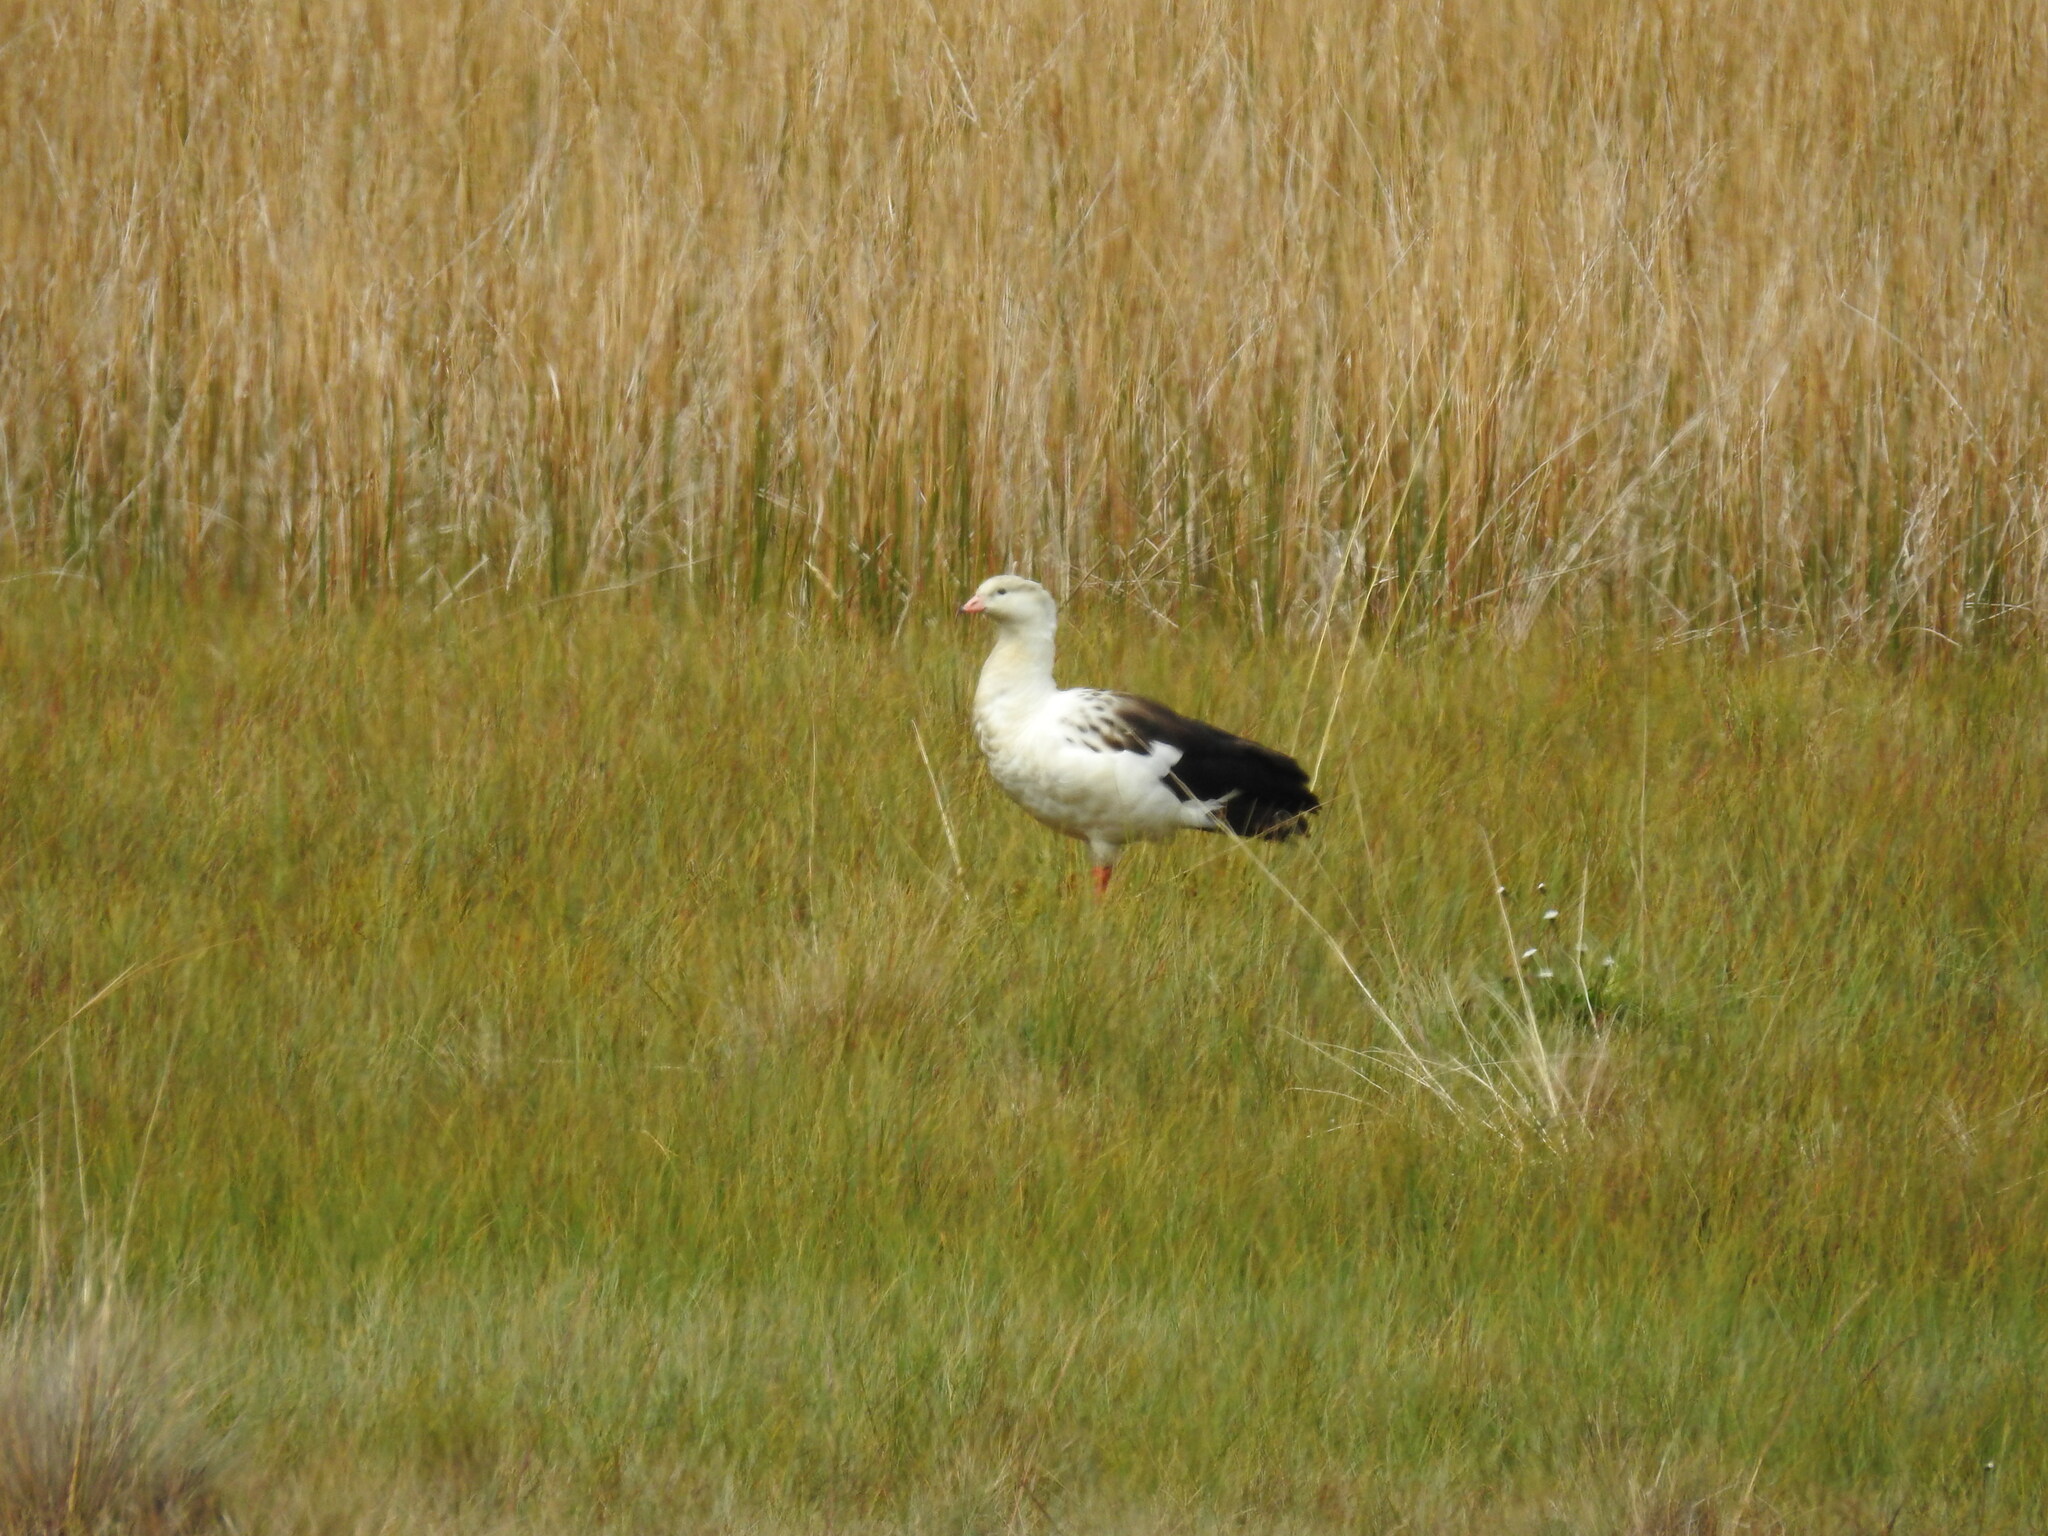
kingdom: Animalia
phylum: Chordata
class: Aves
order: Anseriformes
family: Anatidae
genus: Chloephaga
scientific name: Chloephaga melanoptera
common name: Andean goose
